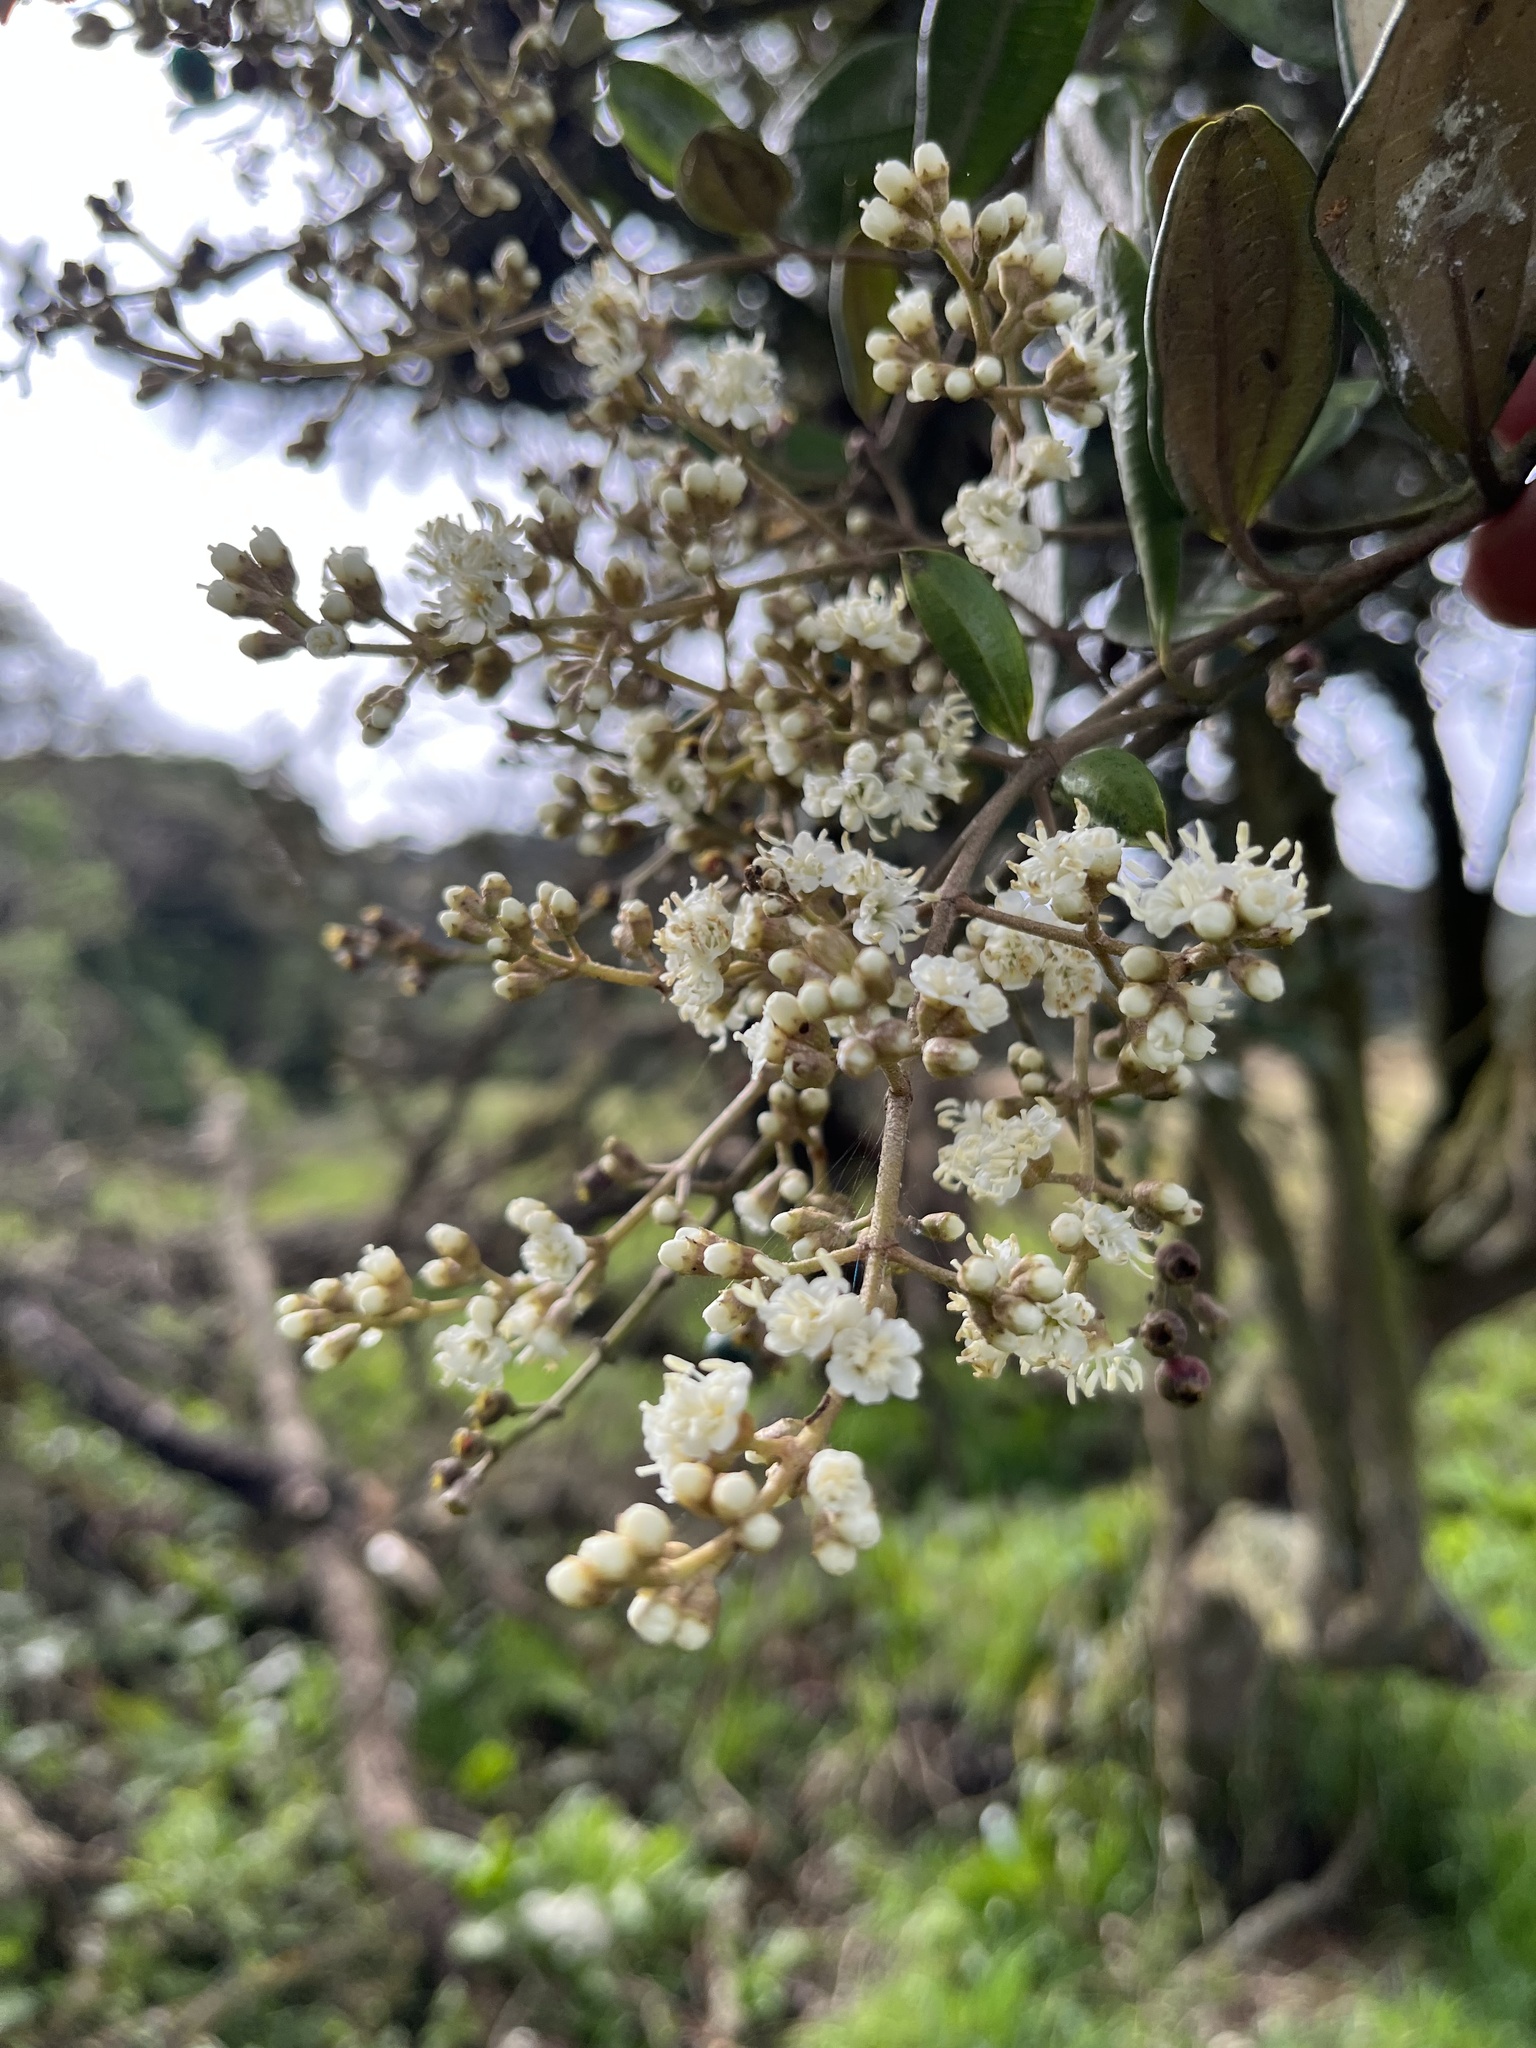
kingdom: Plantae
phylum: Tracheophyta
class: Magnoliopsida
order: Myrtales
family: Melastomataceae
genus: Miconia
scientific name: Miconia squamulosa
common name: Squamulose maya
